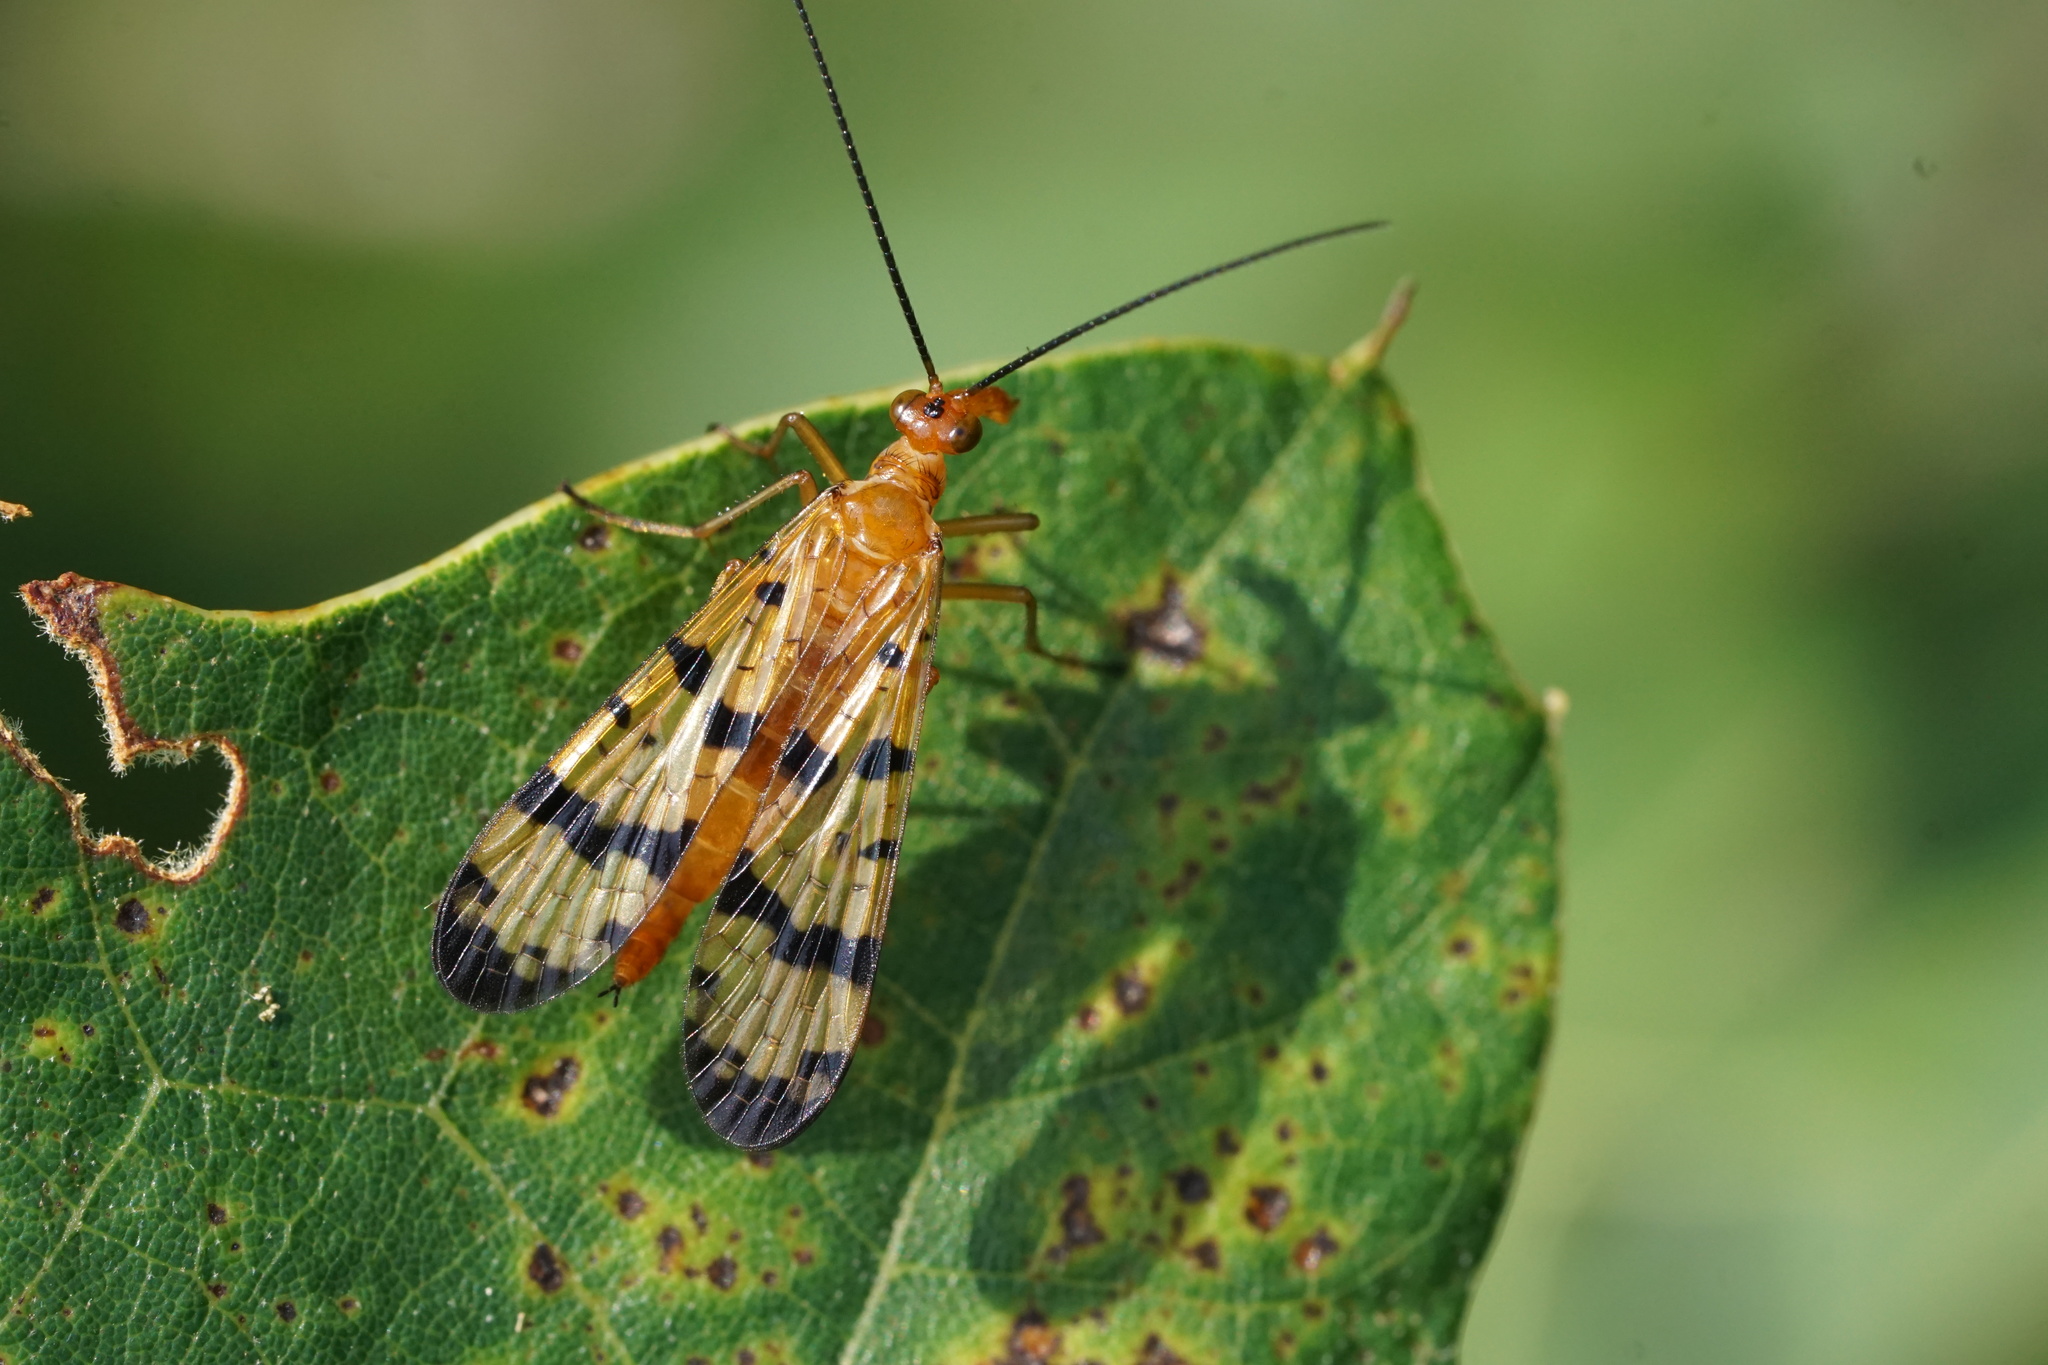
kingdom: Animalia
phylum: Arthropoda
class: Insecta
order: Mecoptera
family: Panorpidae
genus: Panorpa
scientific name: Panorpa
